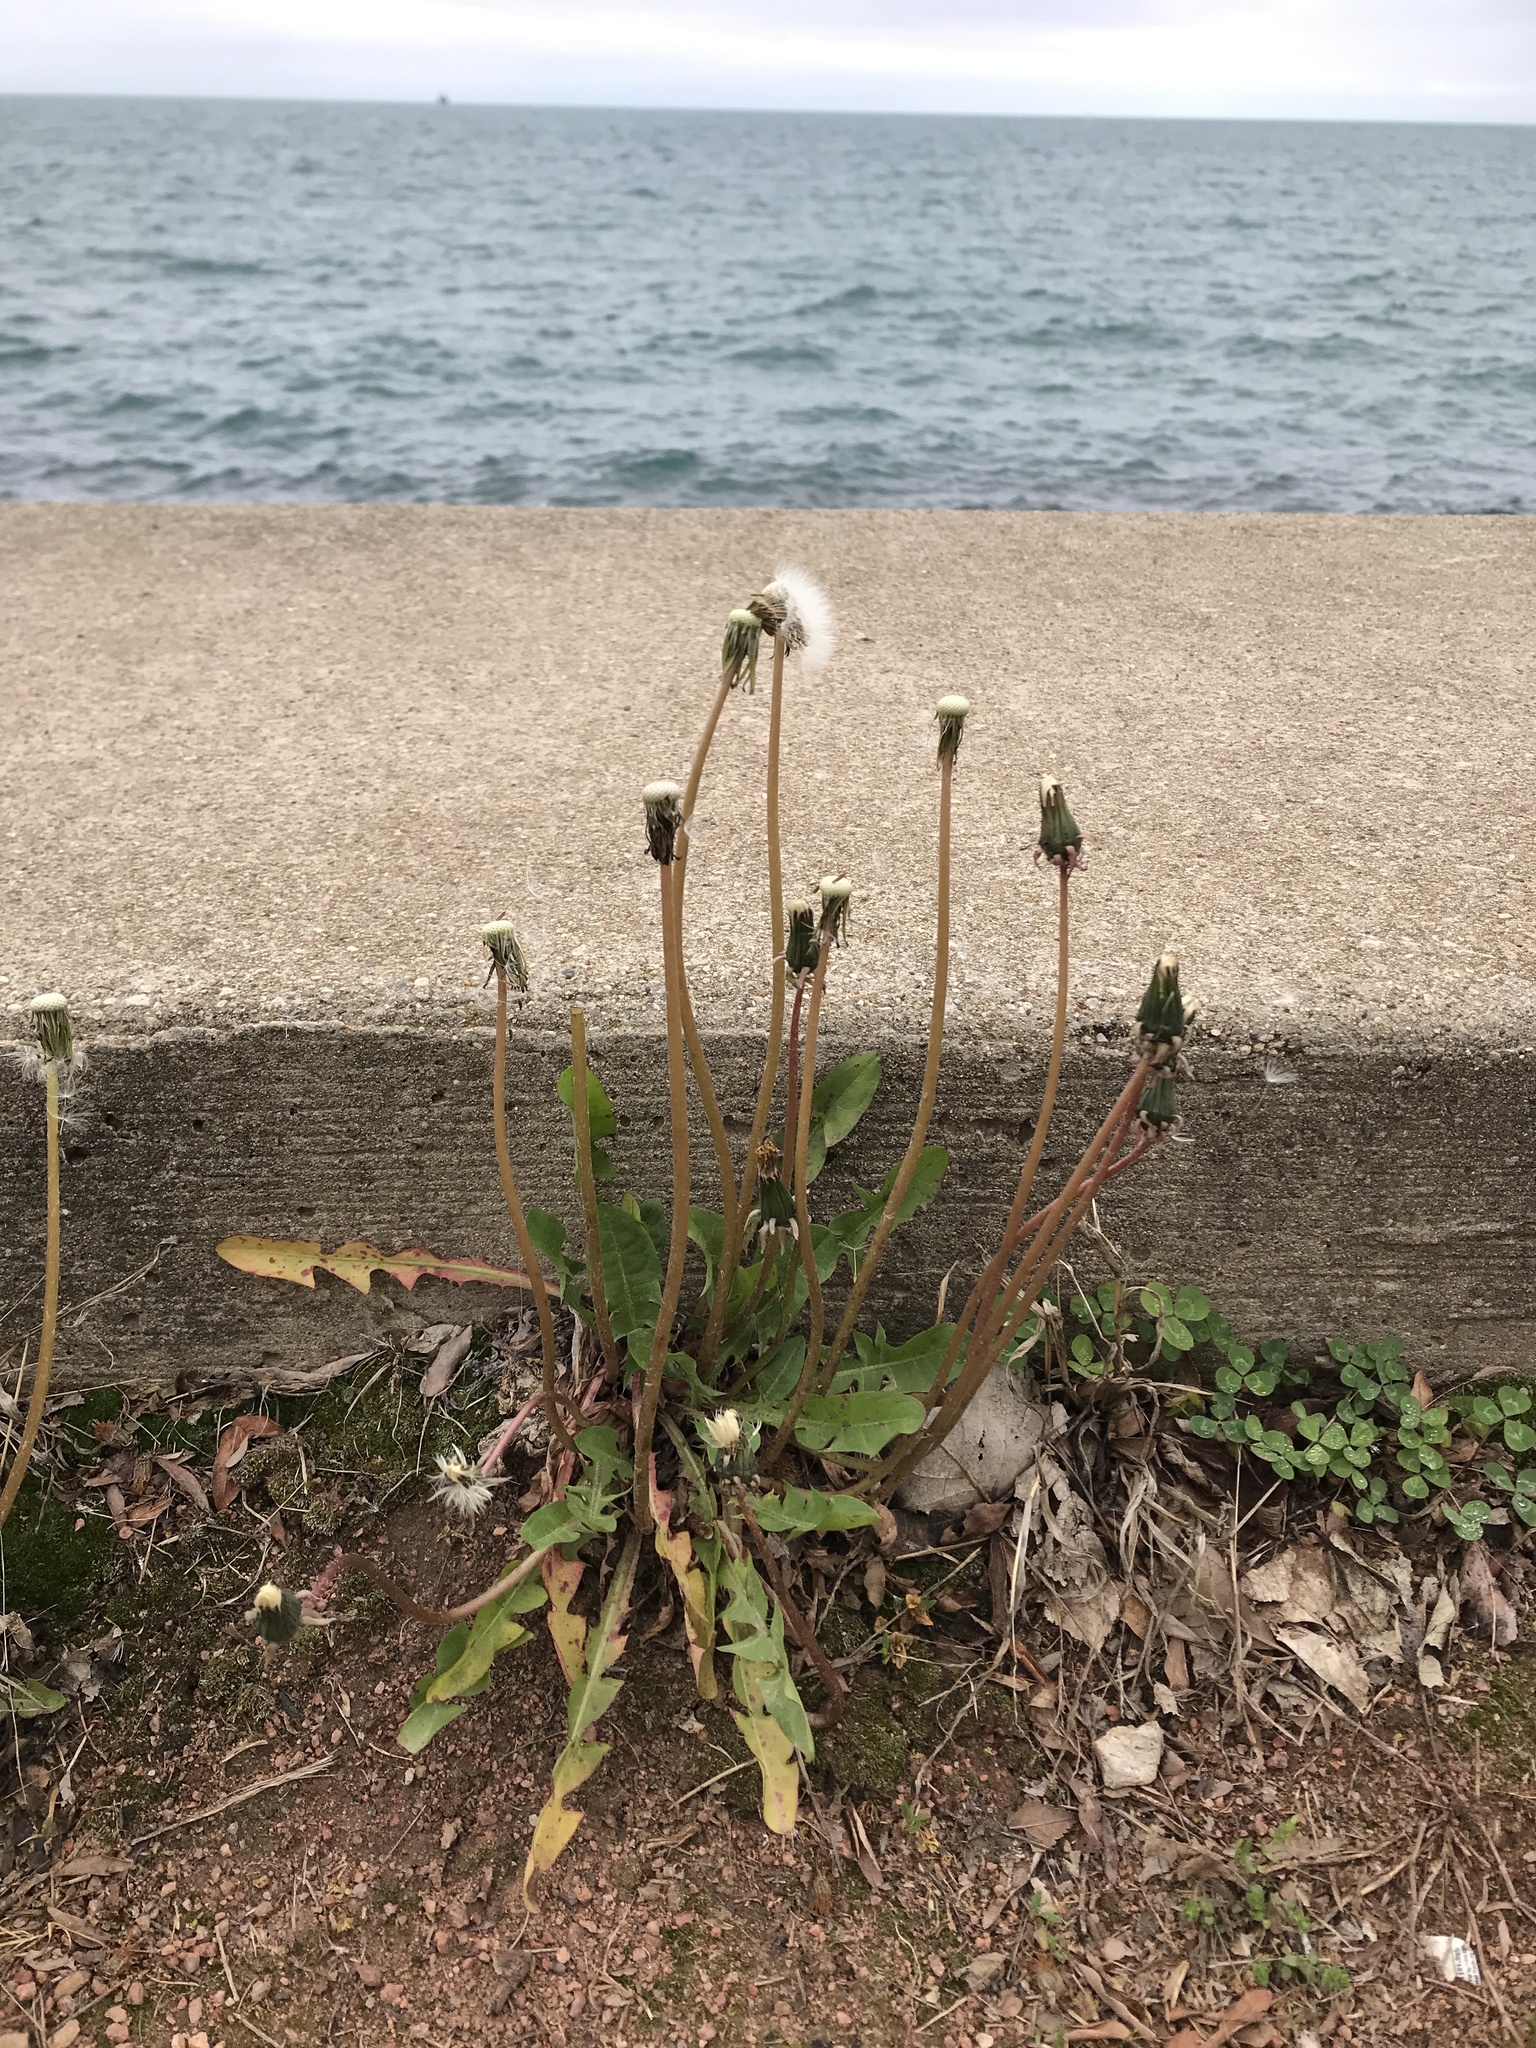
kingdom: Plantae
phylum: Tracheophyta
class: Magnoliopsida
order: Asterales
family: Asteraceae
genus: Taraxacum
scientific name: Taraxacum officinale
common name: Common dandelion
